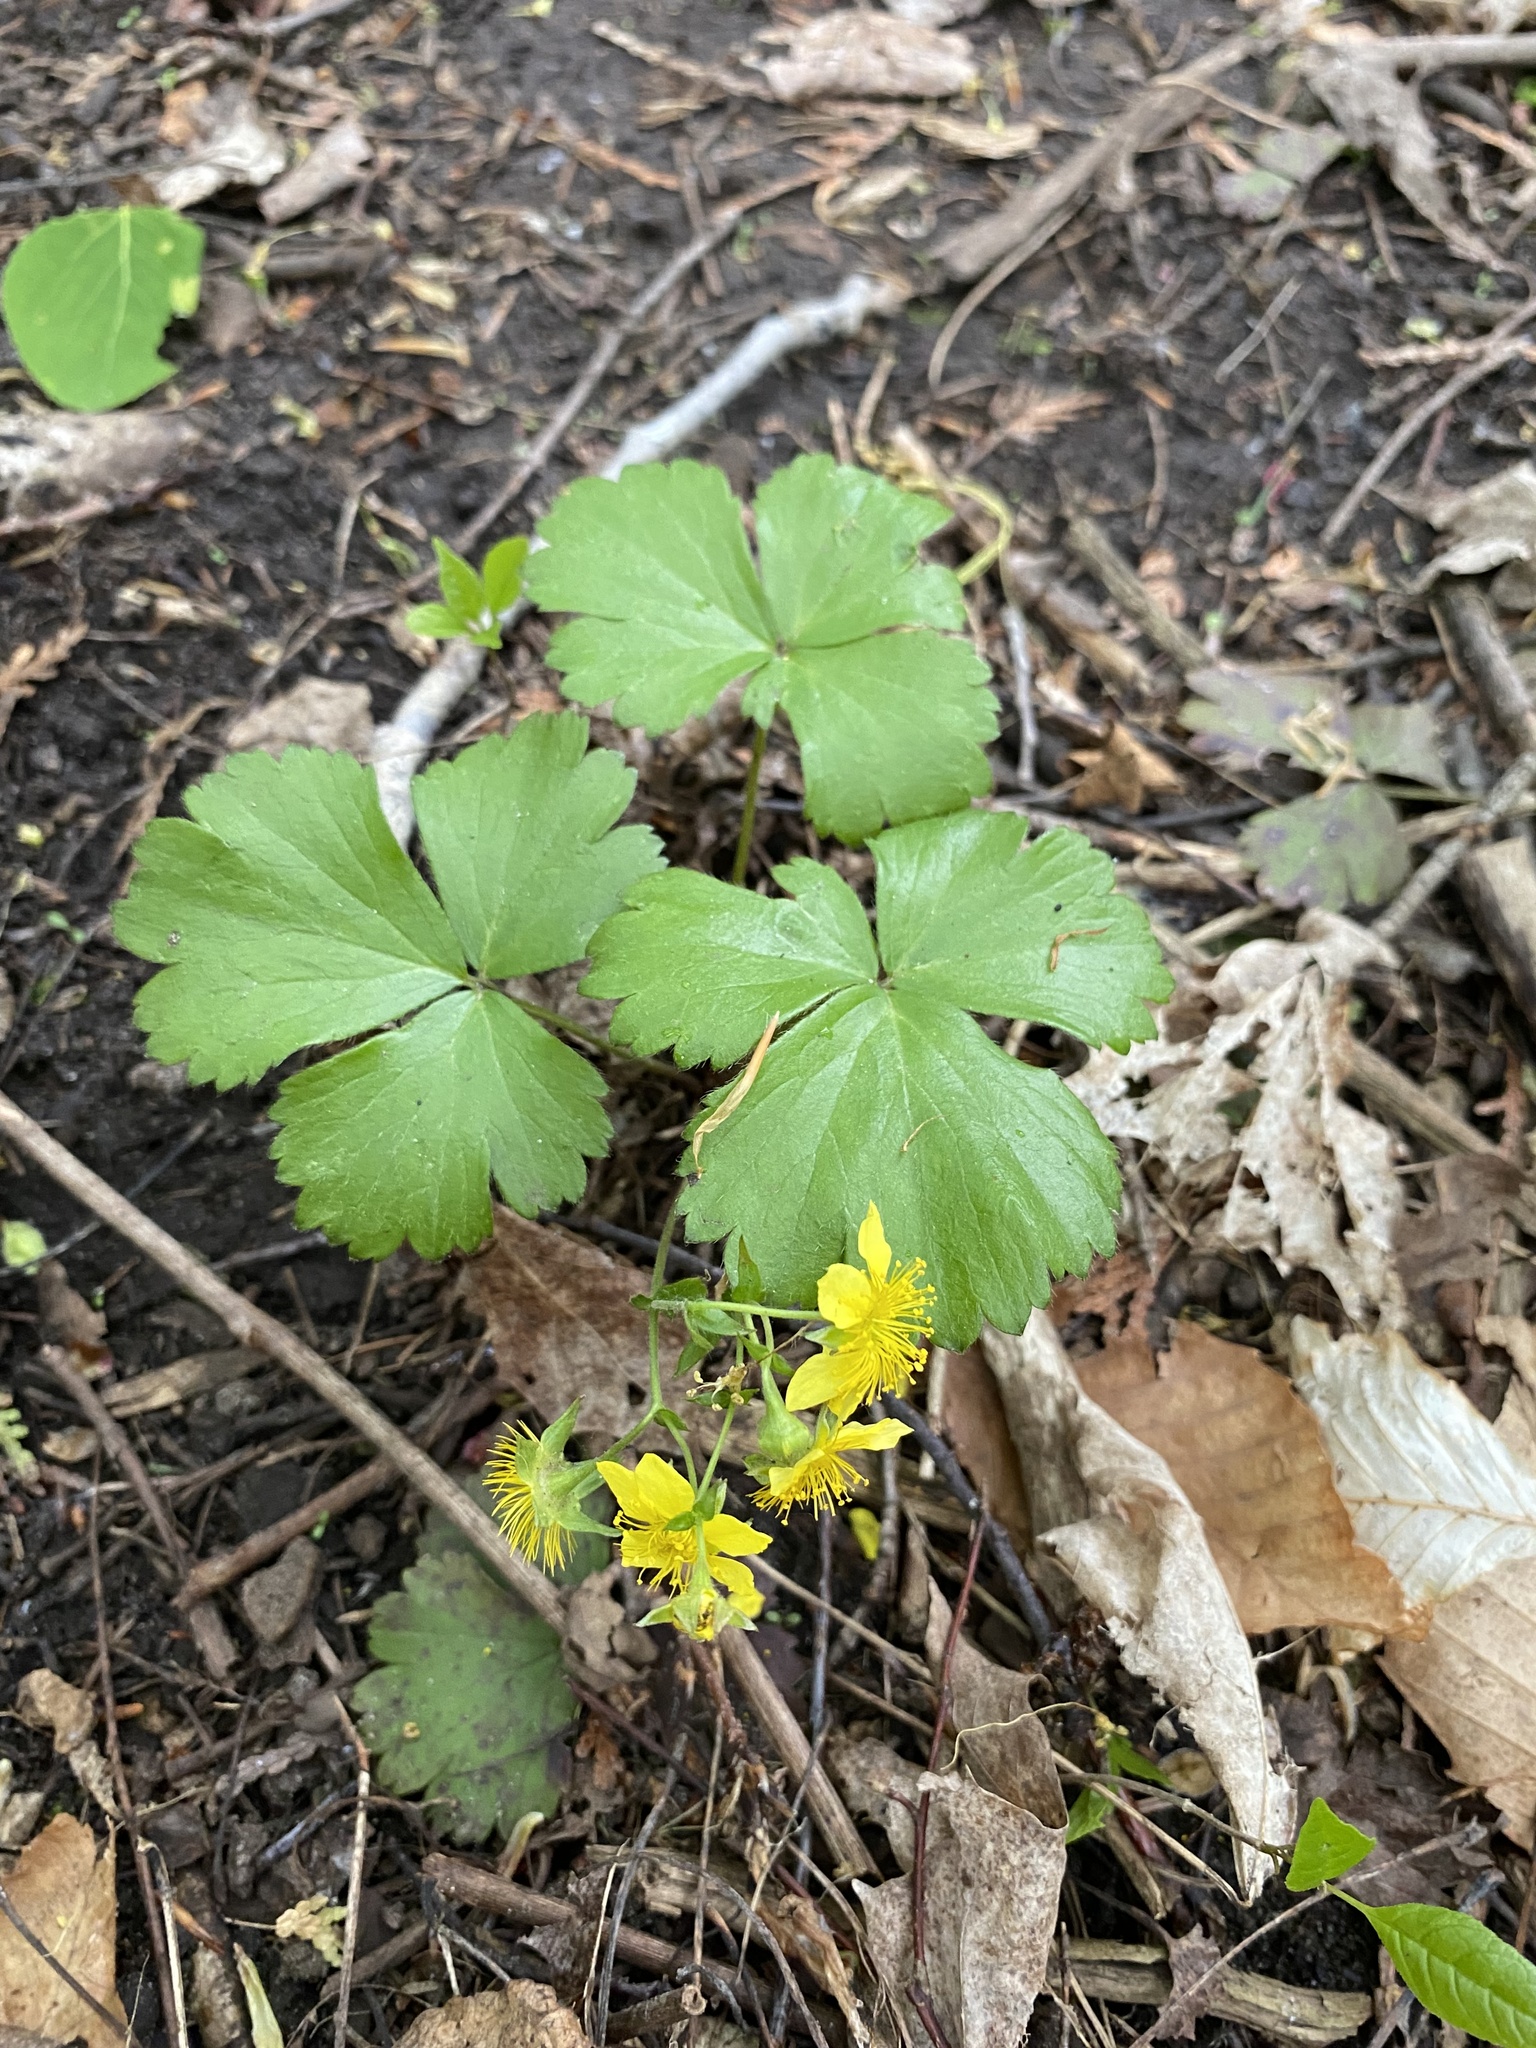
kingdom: Plantae
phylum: Tracheophyta
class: Magnoliopsida
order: Rosales
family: Rosaceae
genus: Geum
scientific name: Geum fragarioides
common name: Appalachian barren strawberry
